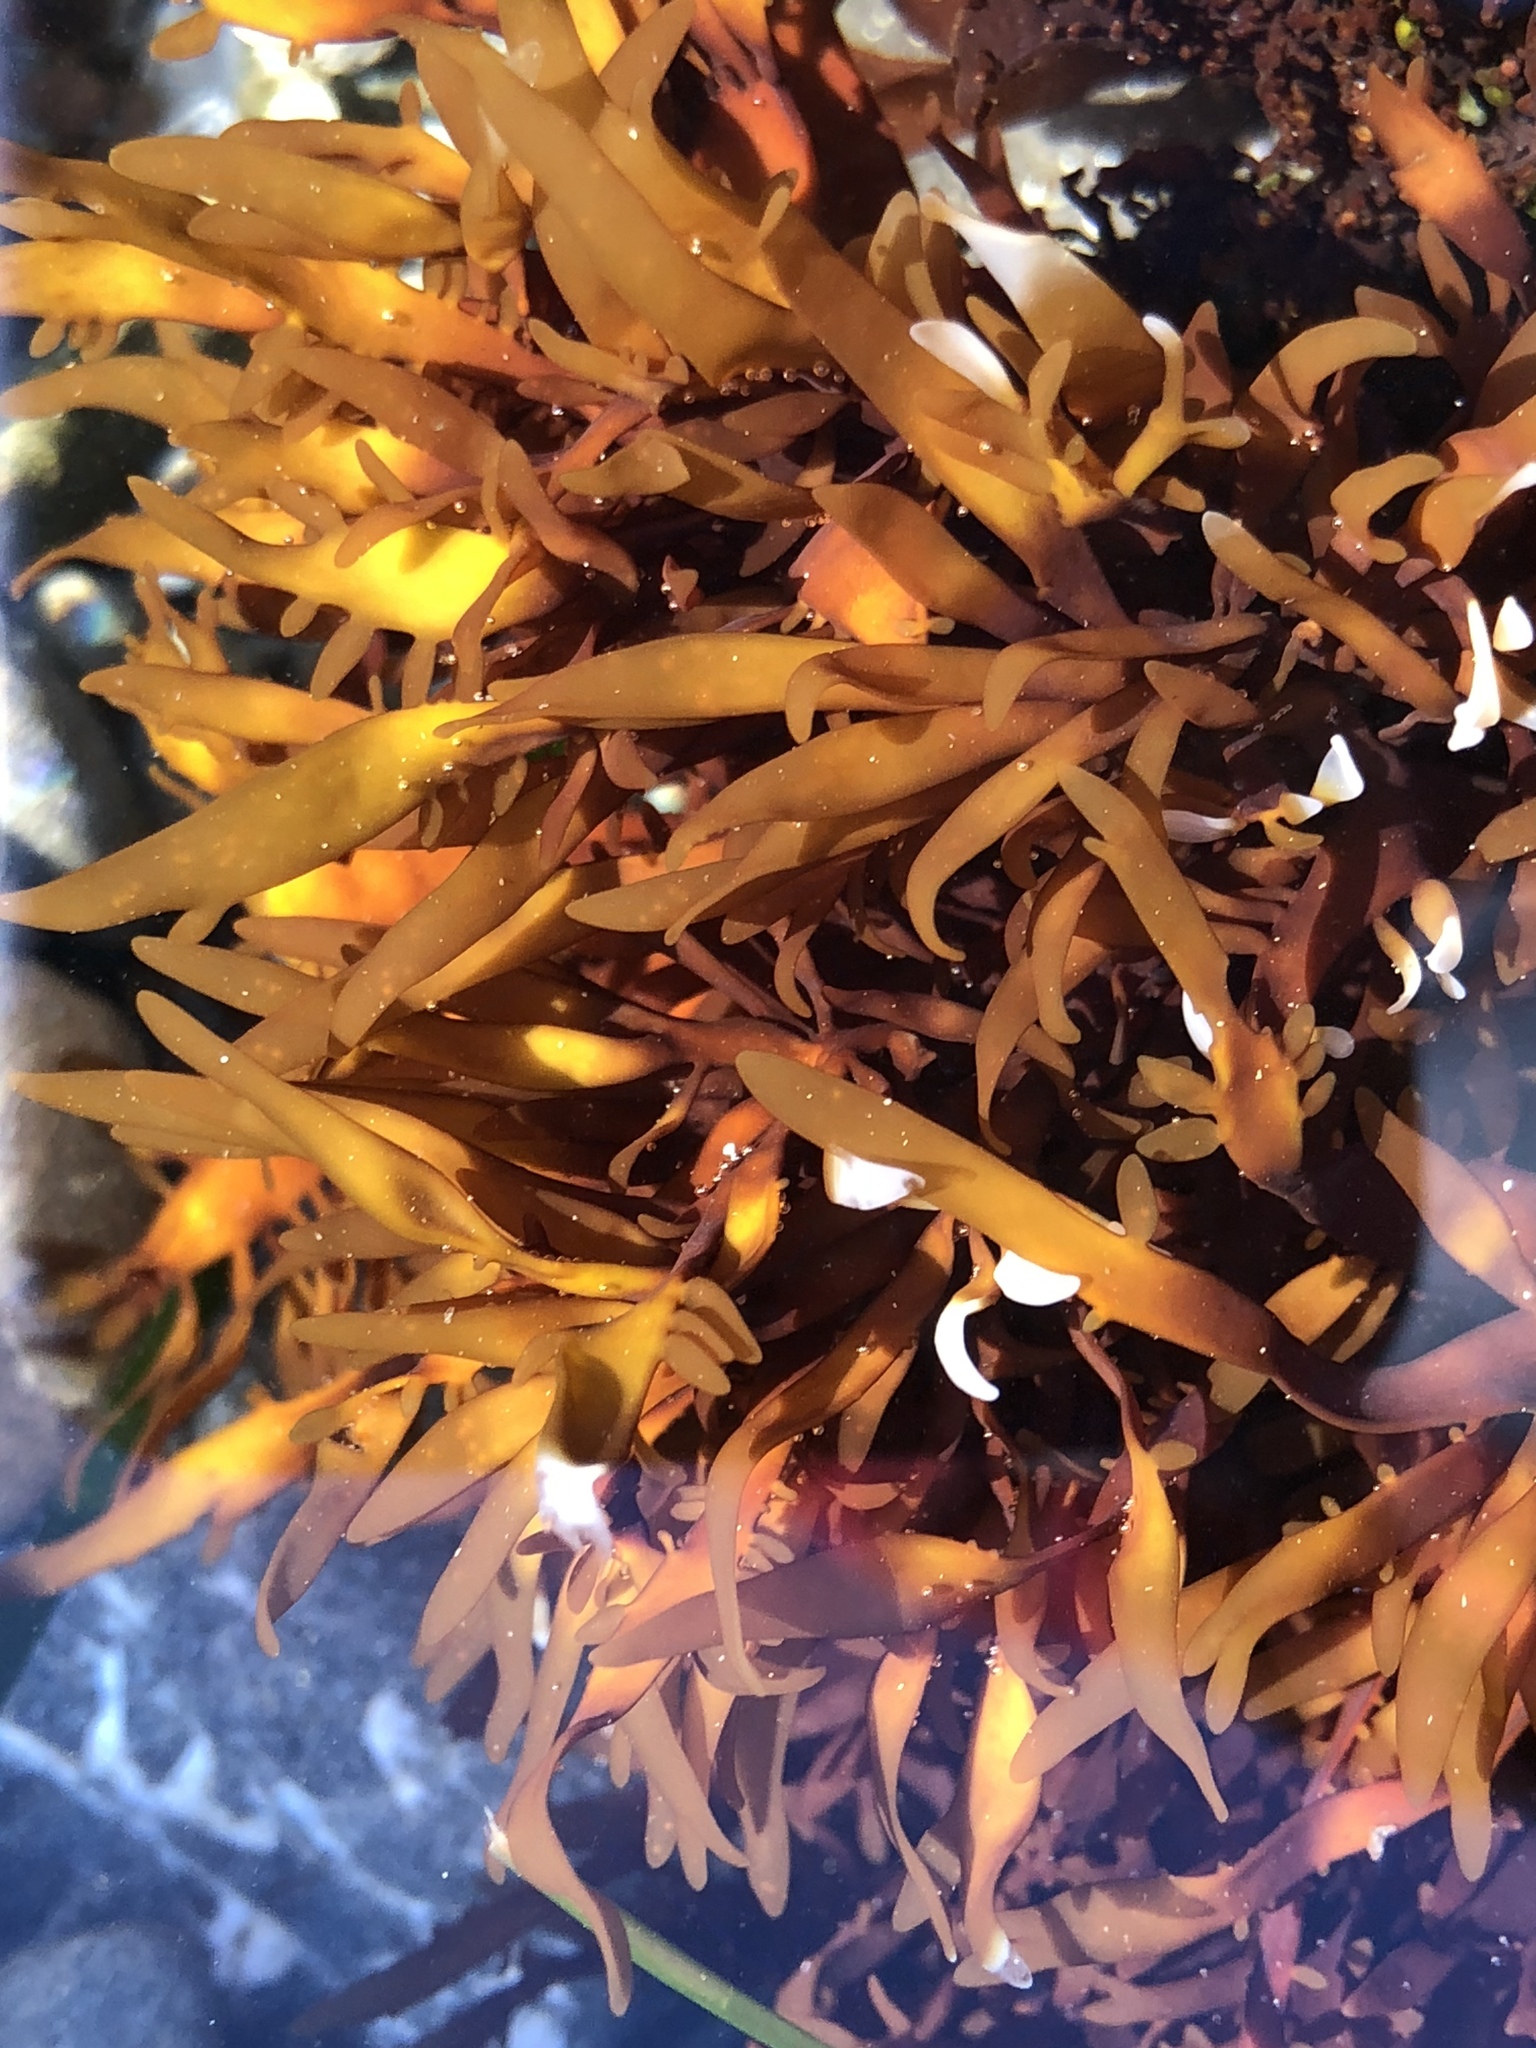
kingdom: Plantae
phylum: Rhodophyta
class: Florideophyceae
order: Halymeniales
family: Halymeniaceae
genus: Grateloupia
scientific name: Grateloupia Prionitis lanceolata
